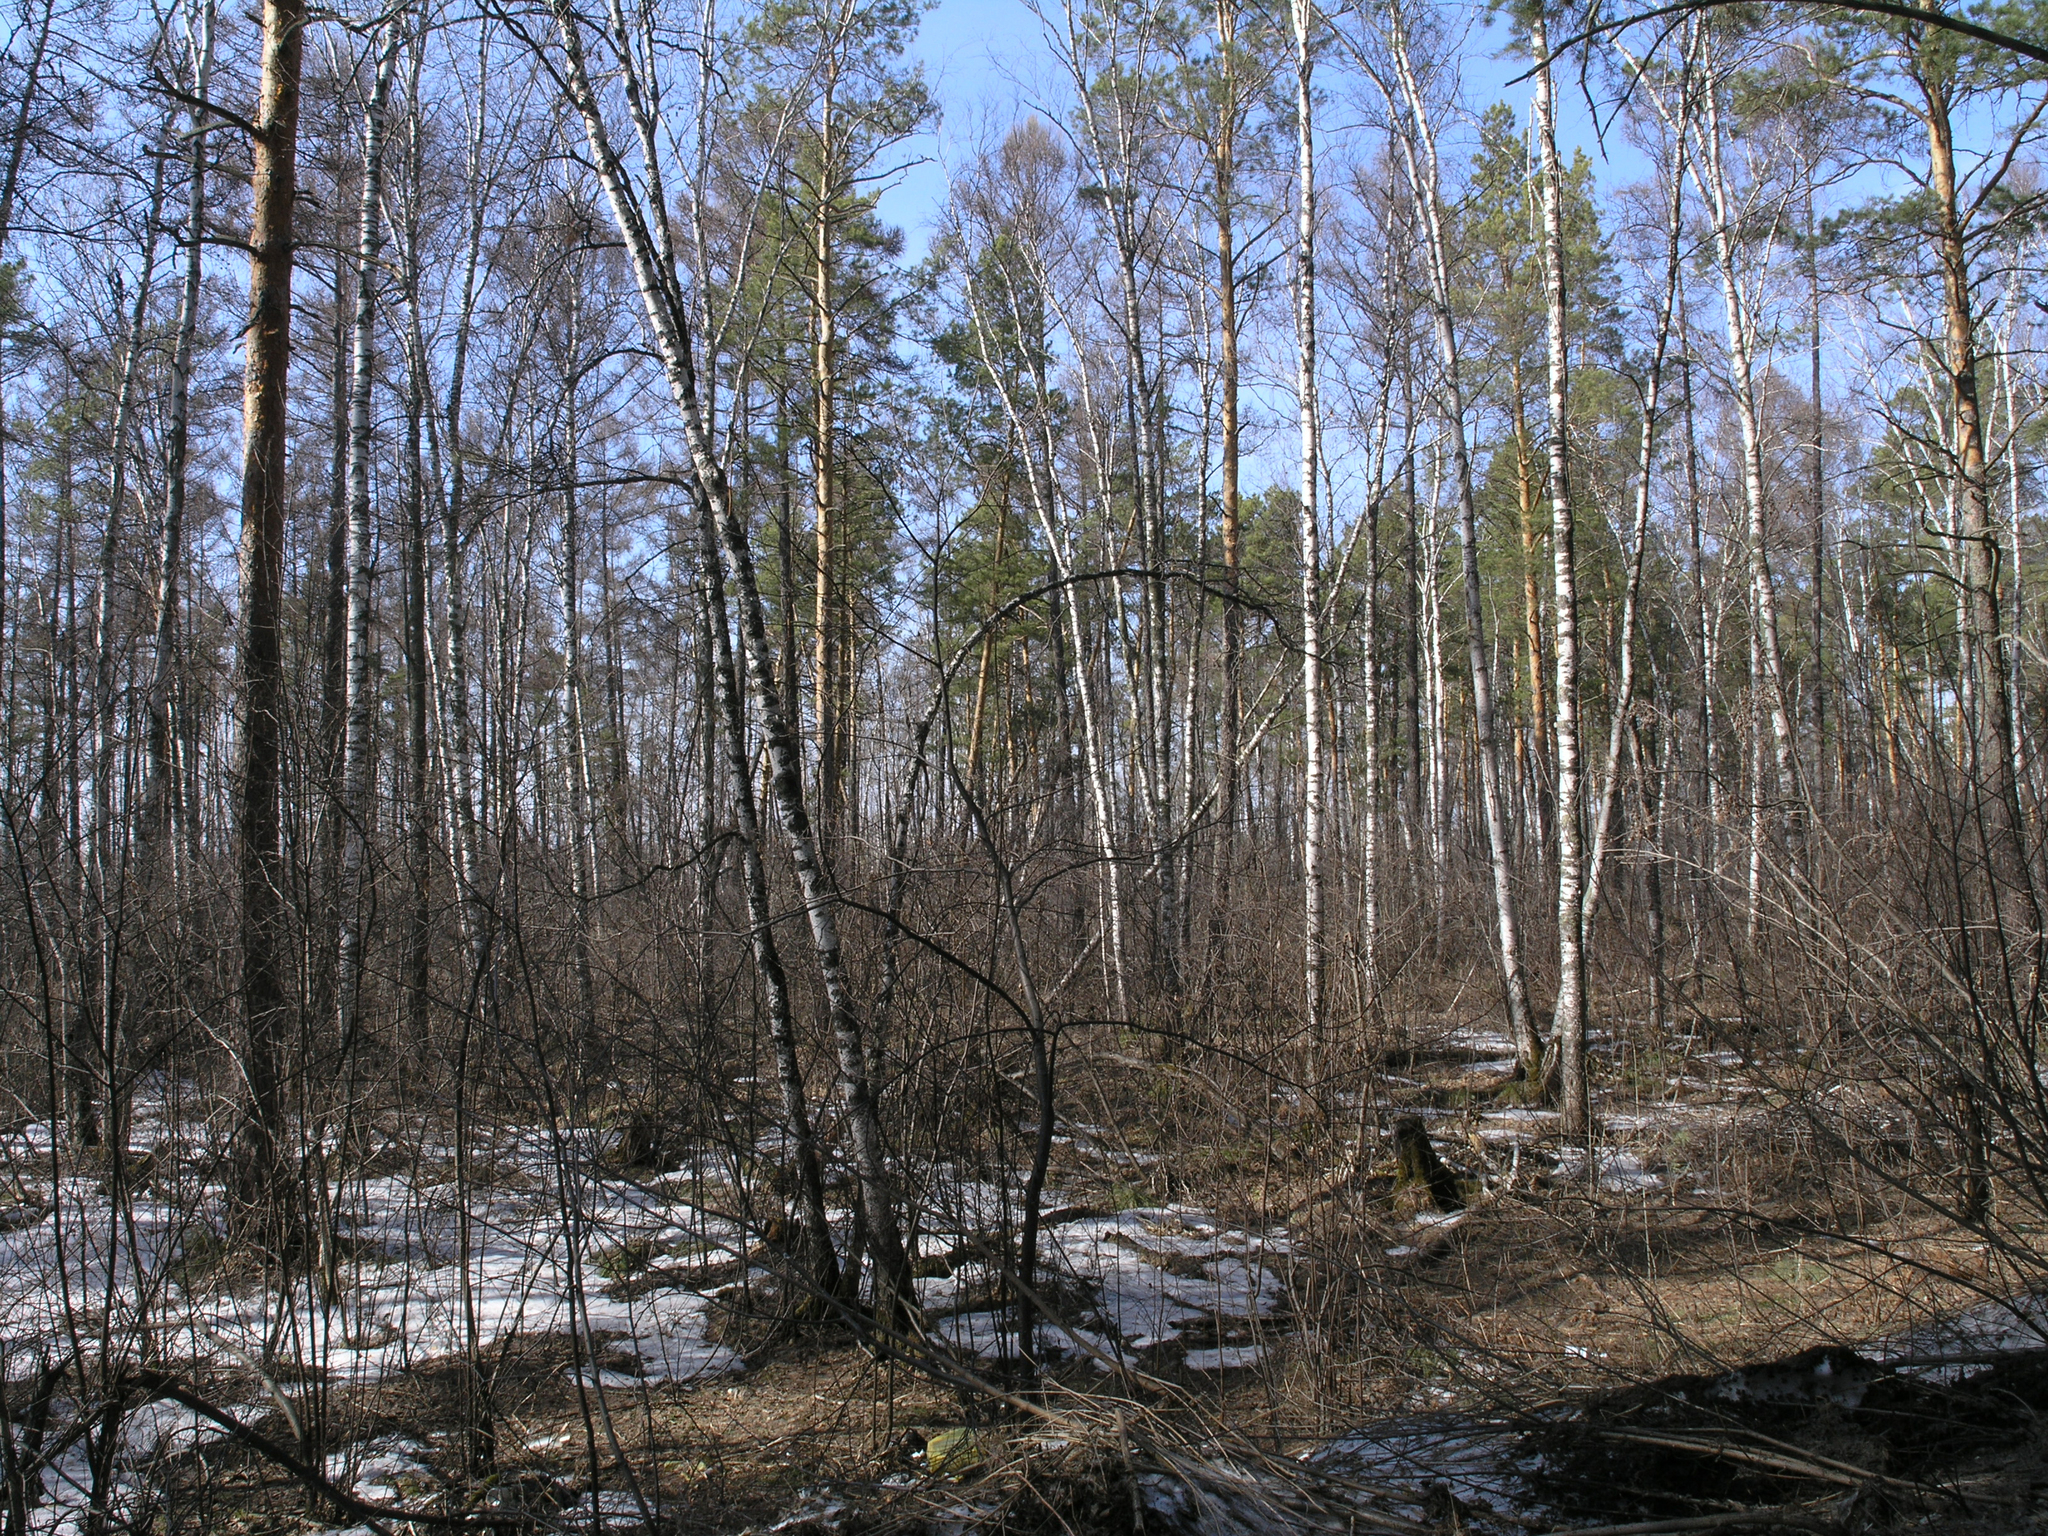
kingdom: Plantae
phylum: Tracheophyta
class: Magnoliopsida
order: Fagales
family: Betulaceae
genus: Betula
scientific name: Betula pendula
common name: Silver birch
